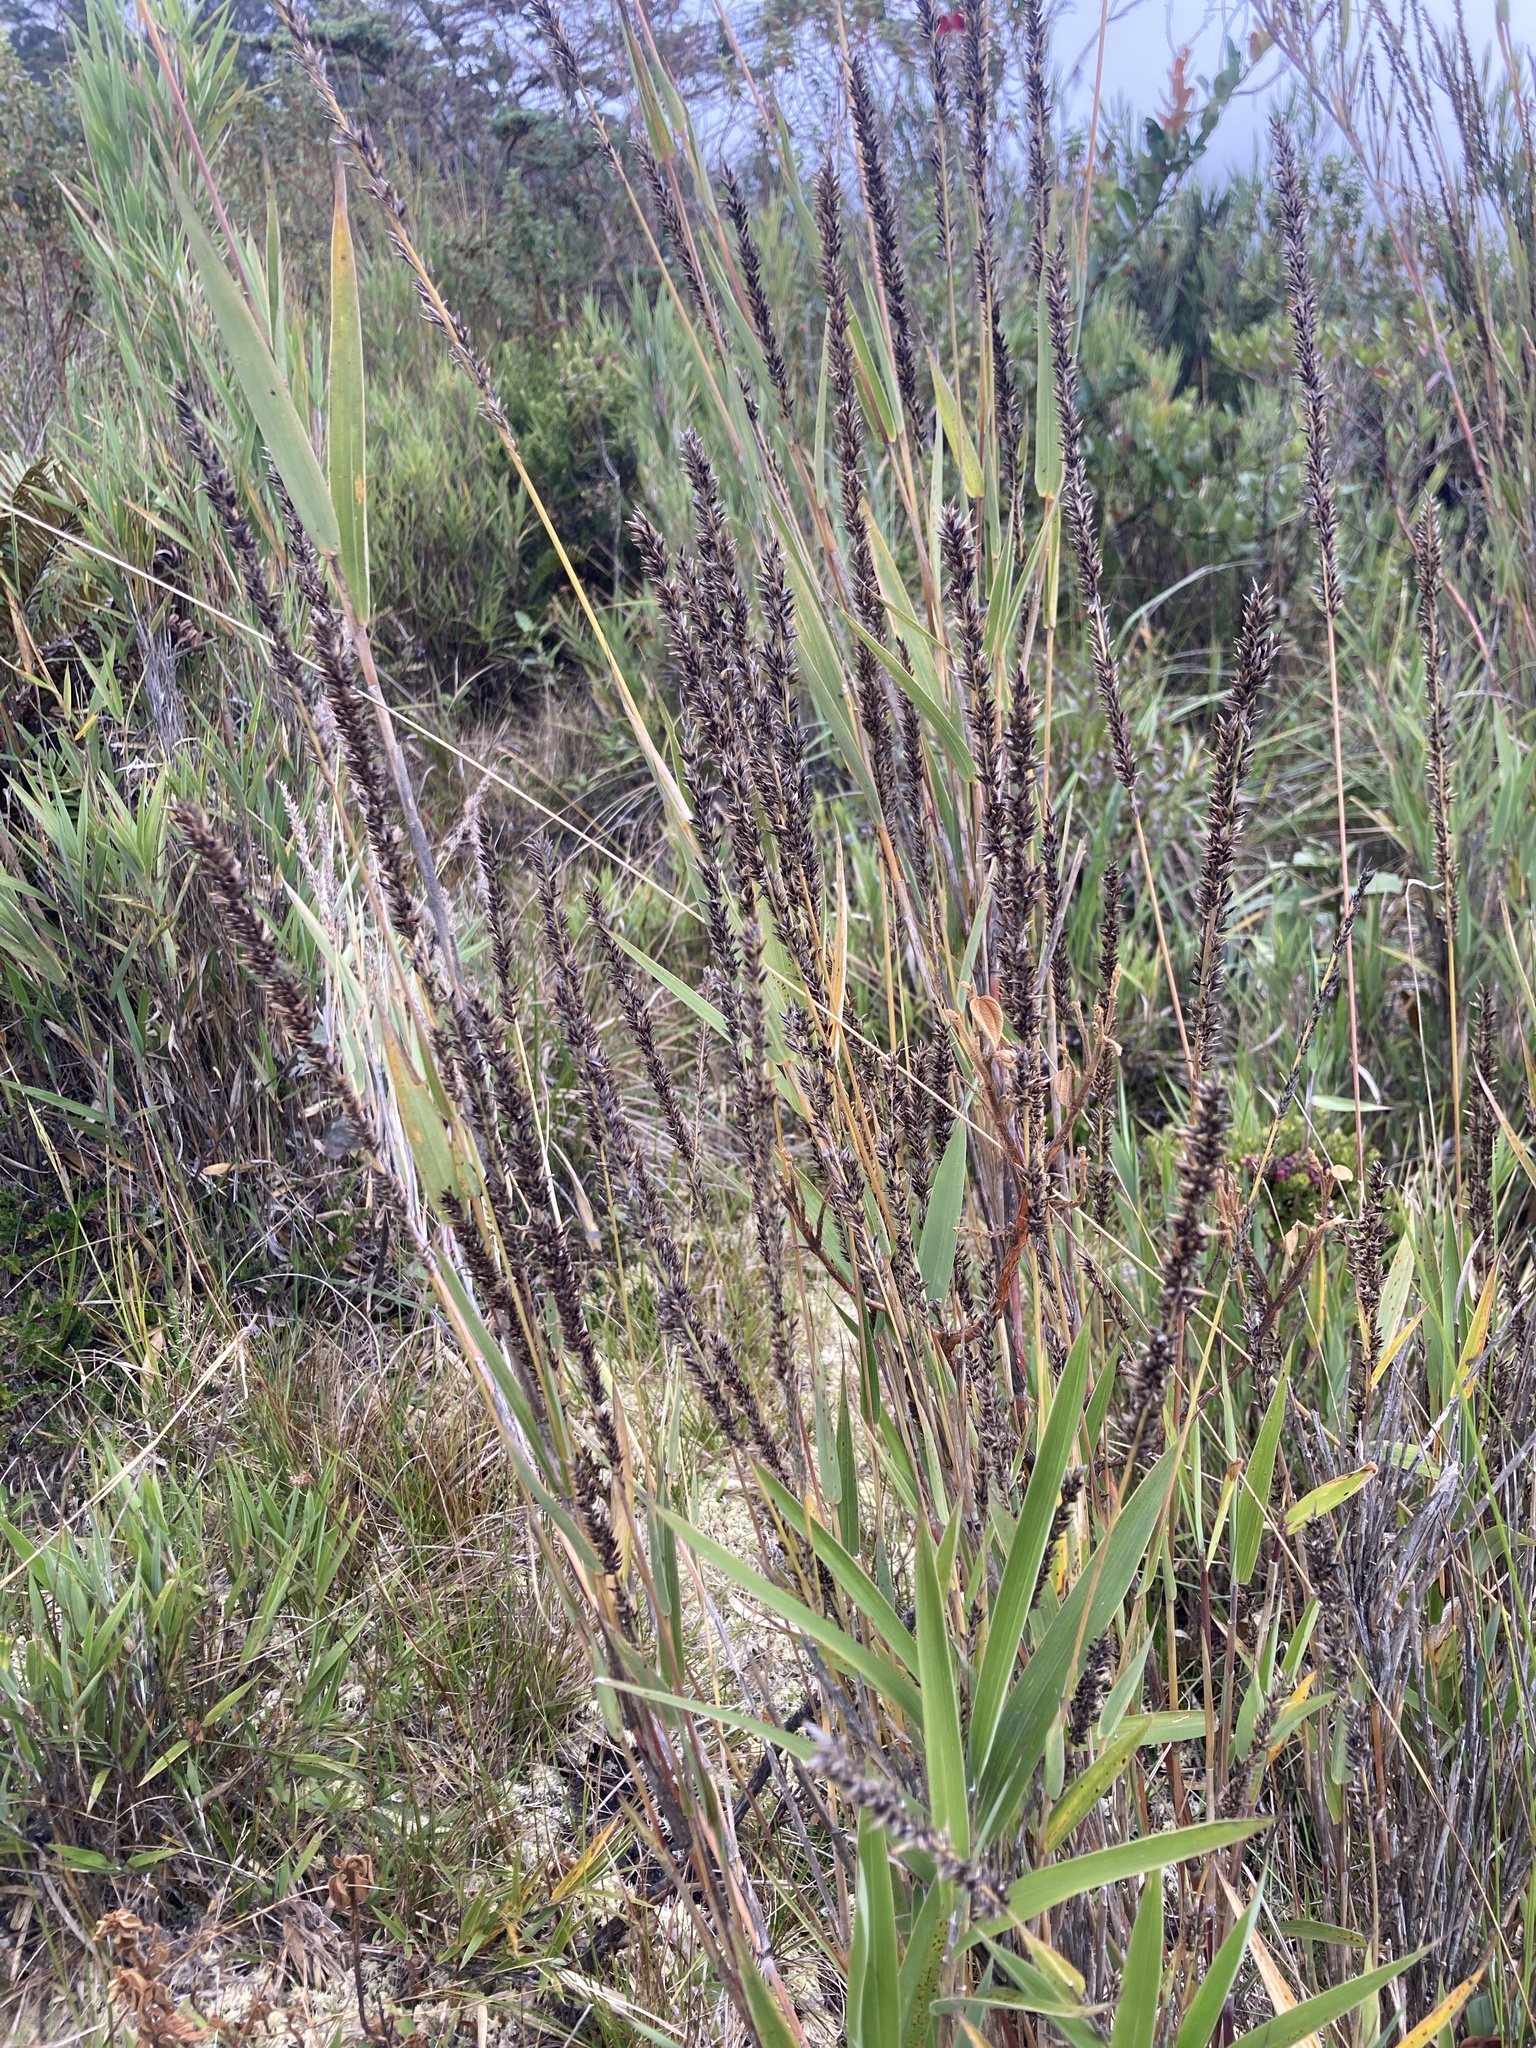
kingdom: Plantae
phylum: Tracheophyta
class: Liliopsida
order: Poales
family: Poaceae
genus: Chusquea
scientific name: Chusquea tessellata
